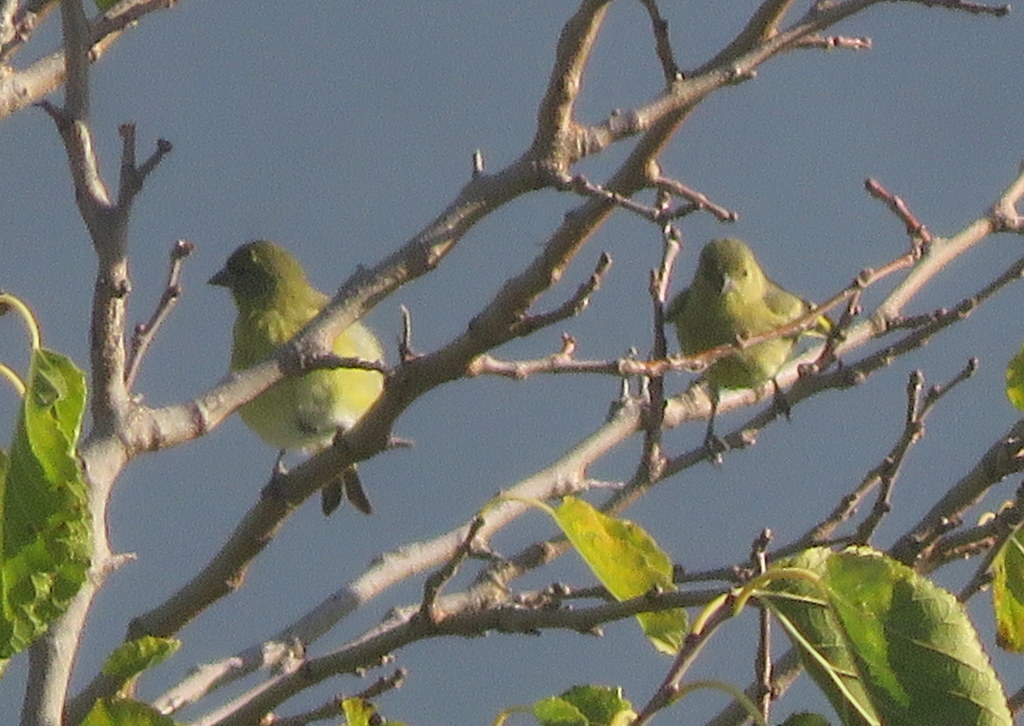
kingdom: Animalia
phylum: Chordata
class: Aves
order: Passeriformes
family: Fringillidae
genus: Spinus
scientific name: Spinus magellanicus
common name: Hooded siskin
